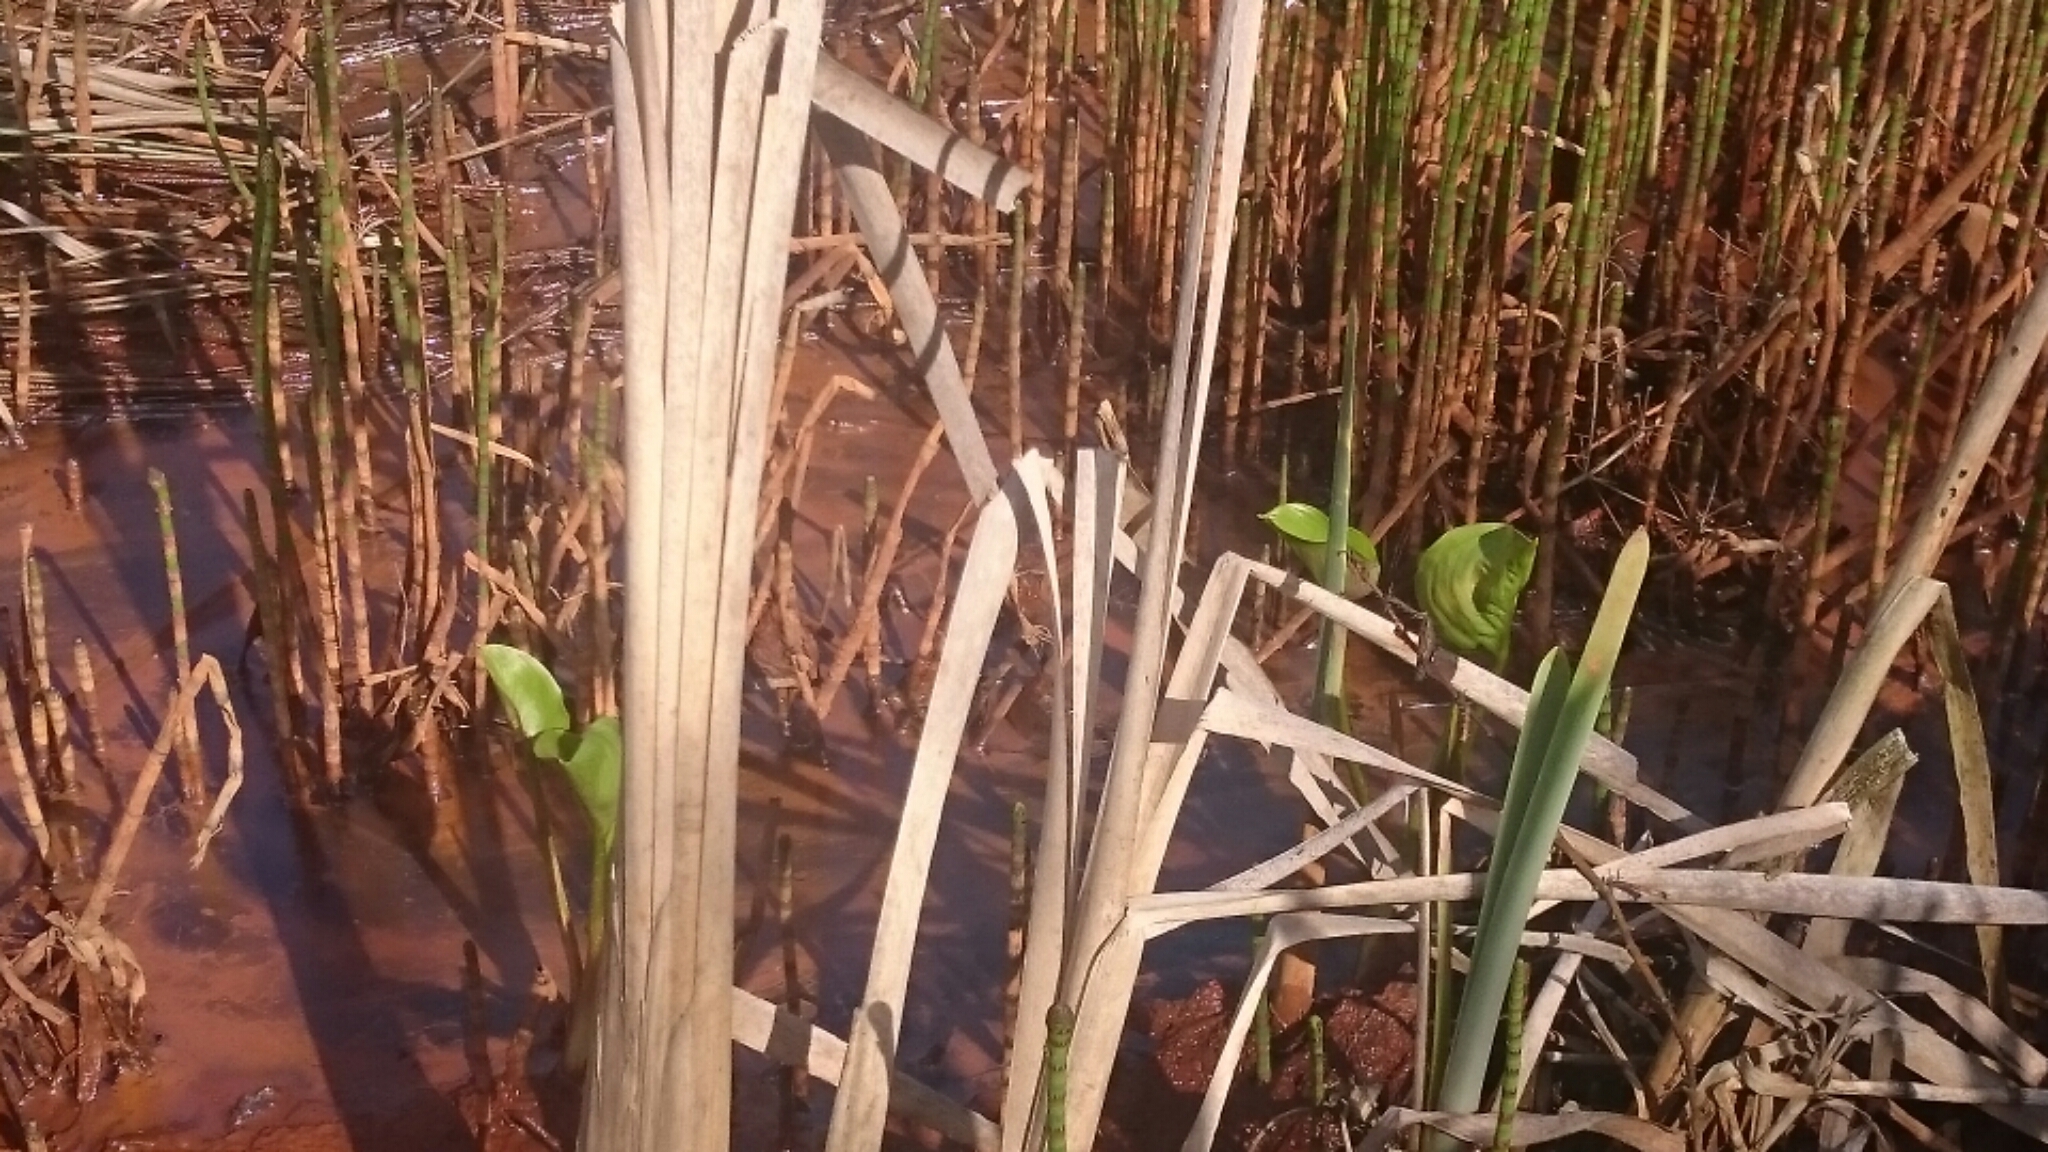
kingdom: Plantae
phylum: Tracheophyta
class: Liliopsida
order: Alismatales
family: Araceae
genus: Calla
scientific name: Calla palustris
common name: Bog arum
